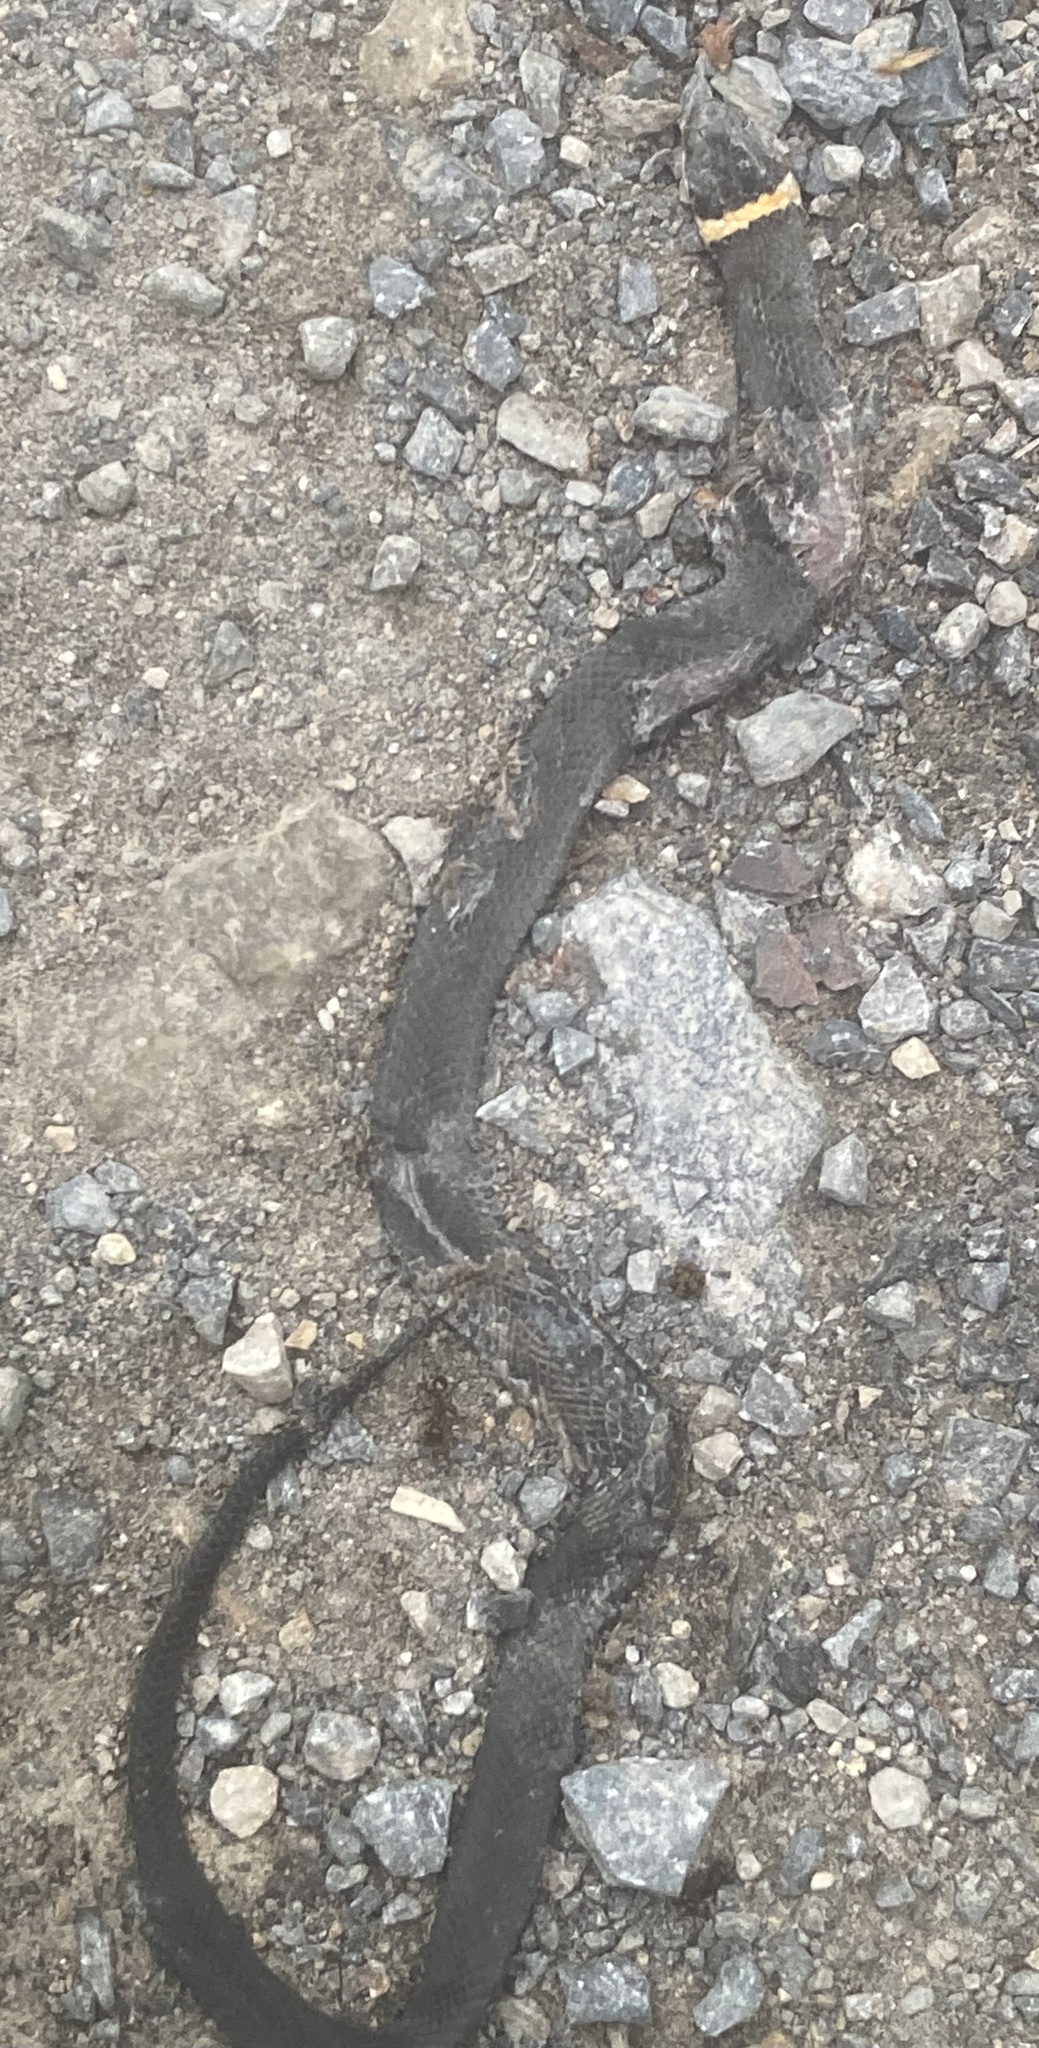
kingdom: Animalia
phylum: Chordata
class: Squamata
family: Colubridae
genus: Diadophis
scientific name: Diadophis punctatus
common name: Ringneck snake
